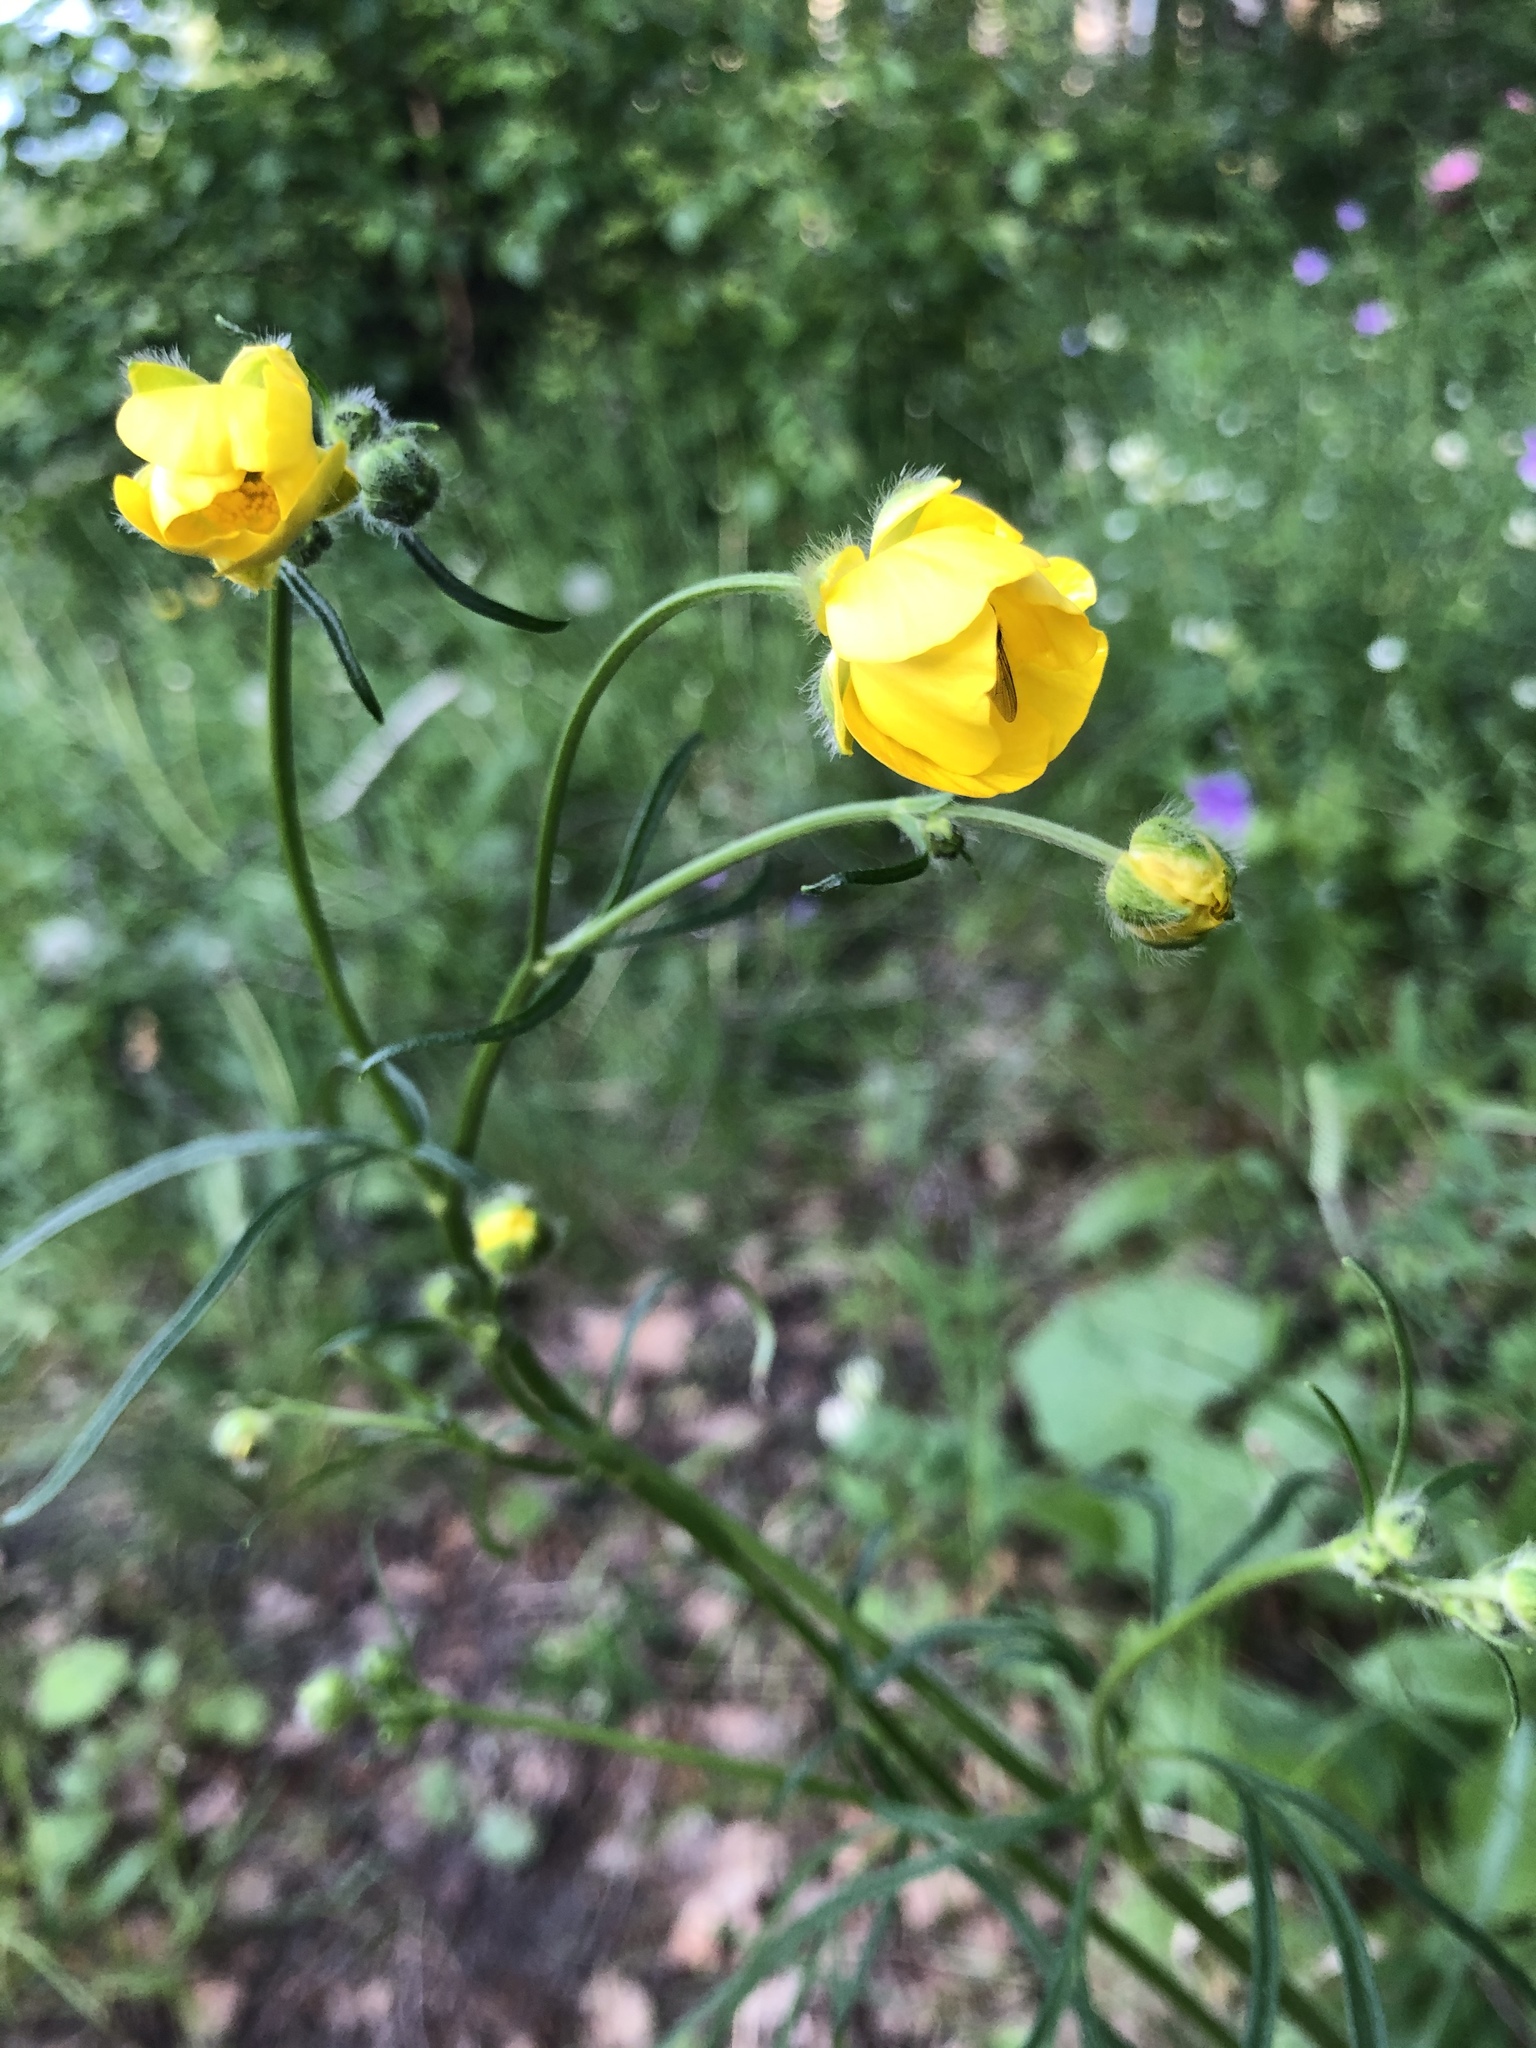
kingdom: Plantae
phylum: Tracheophyta
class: Magnoliopsida
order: Ranunculales
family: Ranunculaceae
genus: Ranunculus
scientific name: Ranunculus polyanthemos
